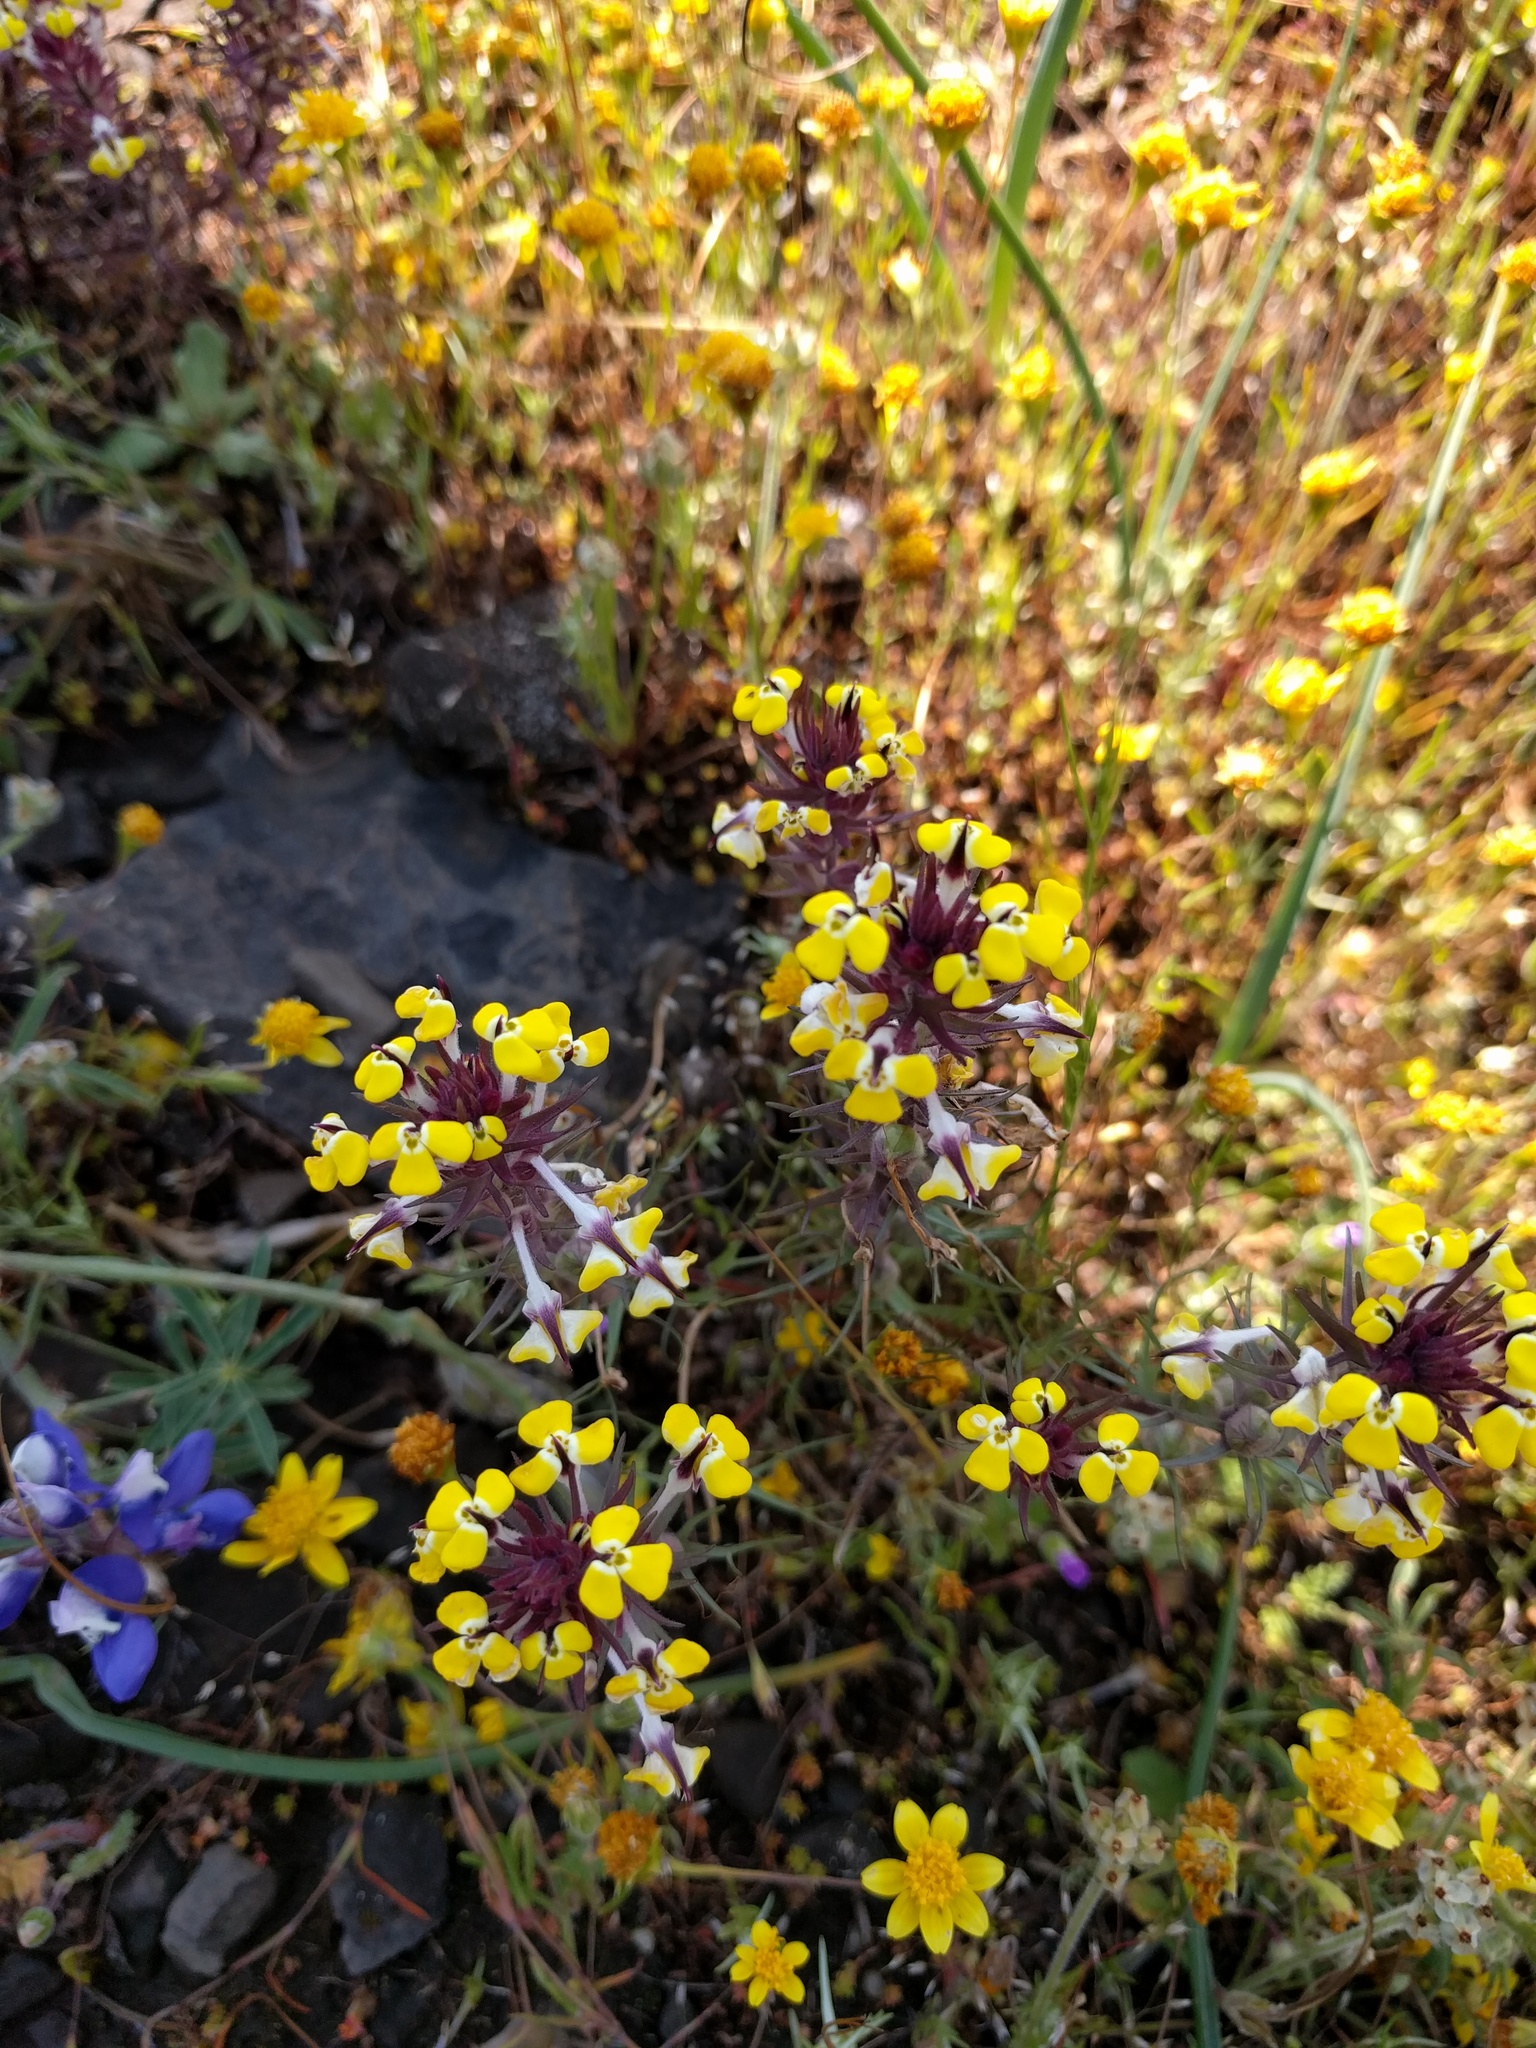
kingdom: Plantae
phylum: Tracheophyta
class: Magnoliopsida
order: Lamiales
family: Orobanchaceae
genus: Triphysaria
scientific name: Triphysaria eriantha
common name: Johnny-tuck
